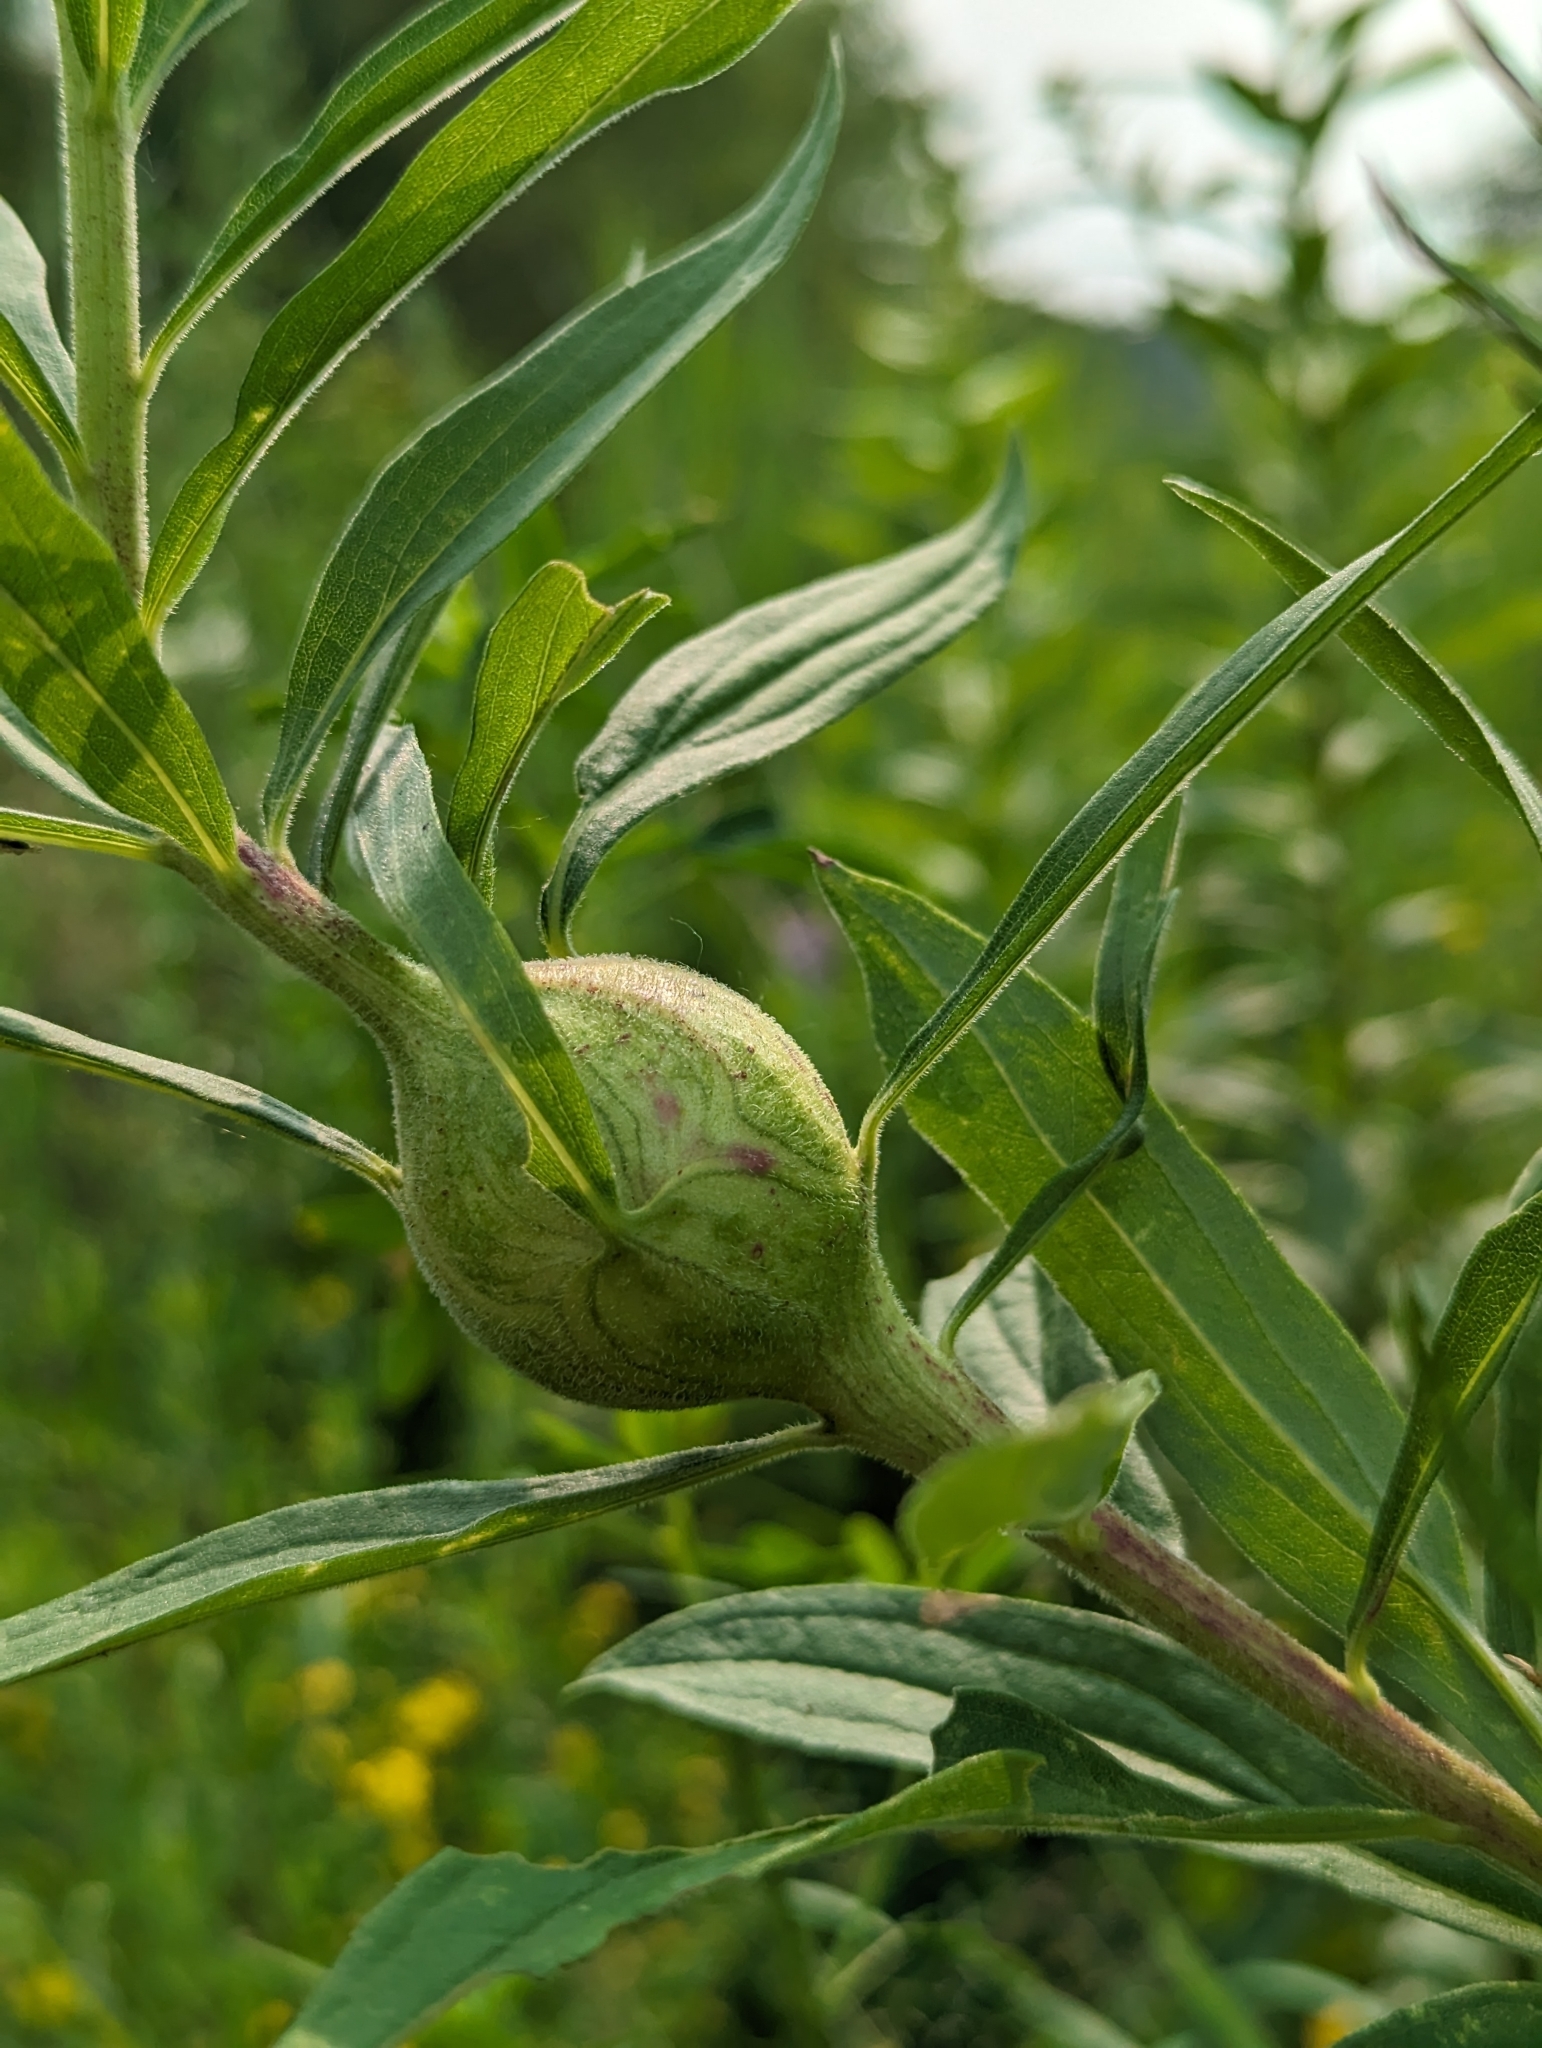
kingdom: Animalia
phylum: Arthropoda
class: Insecta
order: Diptera
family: Tephritidae
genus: Eurosta
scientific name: Eurosta solidaginis
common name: Goldenrod gall fly
